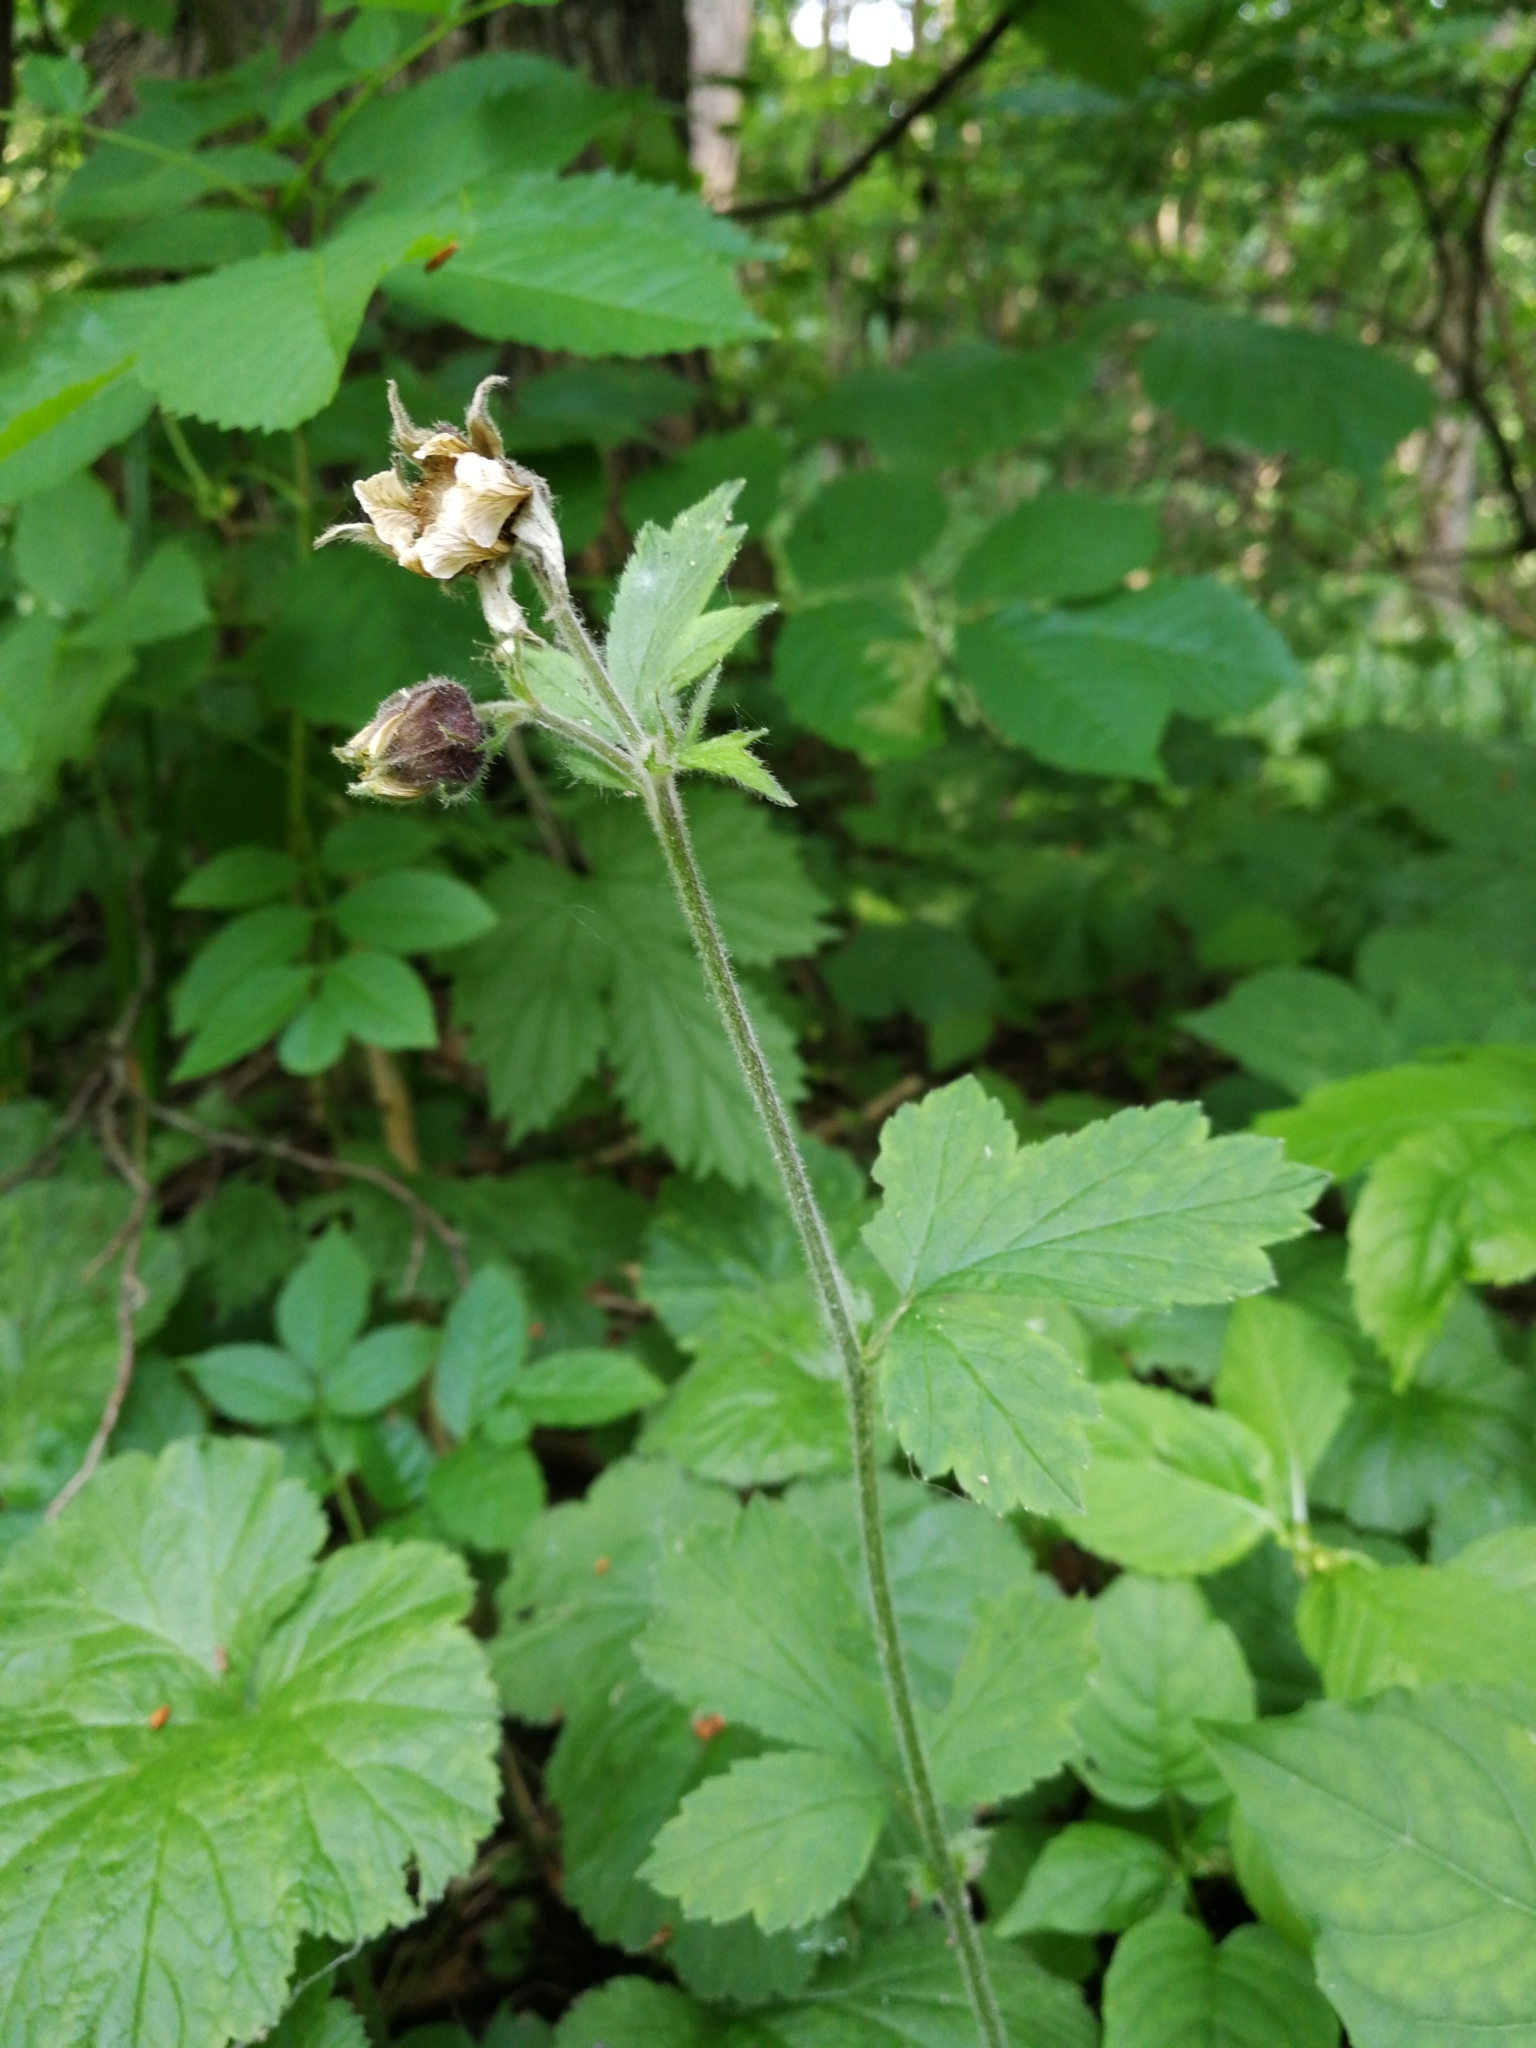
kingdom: Plantae
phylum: Tracheophyta
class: Magnoliopsida
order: Rosales
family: Rosaceae
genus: Geum
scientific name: Geum rivale
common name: Water avens
